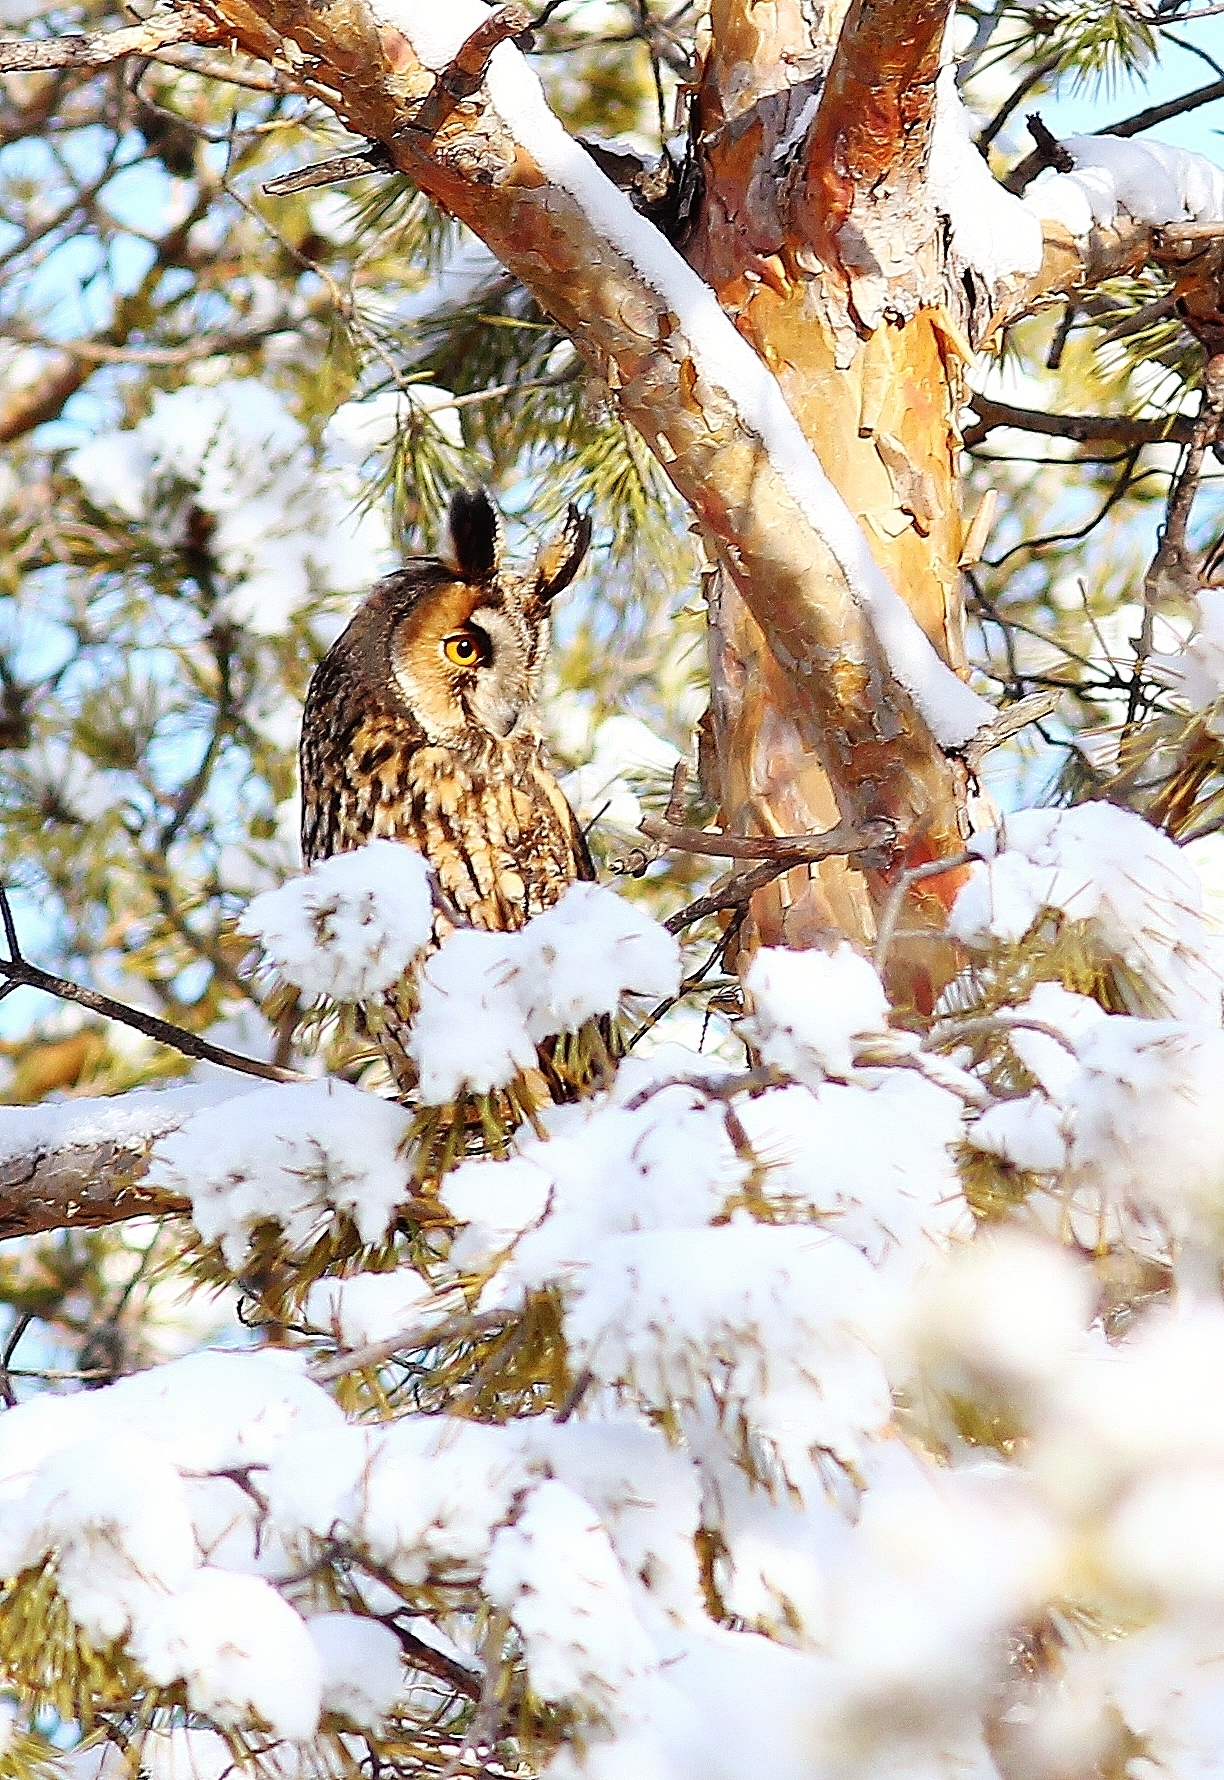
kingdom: Animalia
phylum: Chordata
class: Aves
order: Strigiformes
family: Strigidae
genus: Asio
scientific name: Asio otus
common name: Long-eared owl
